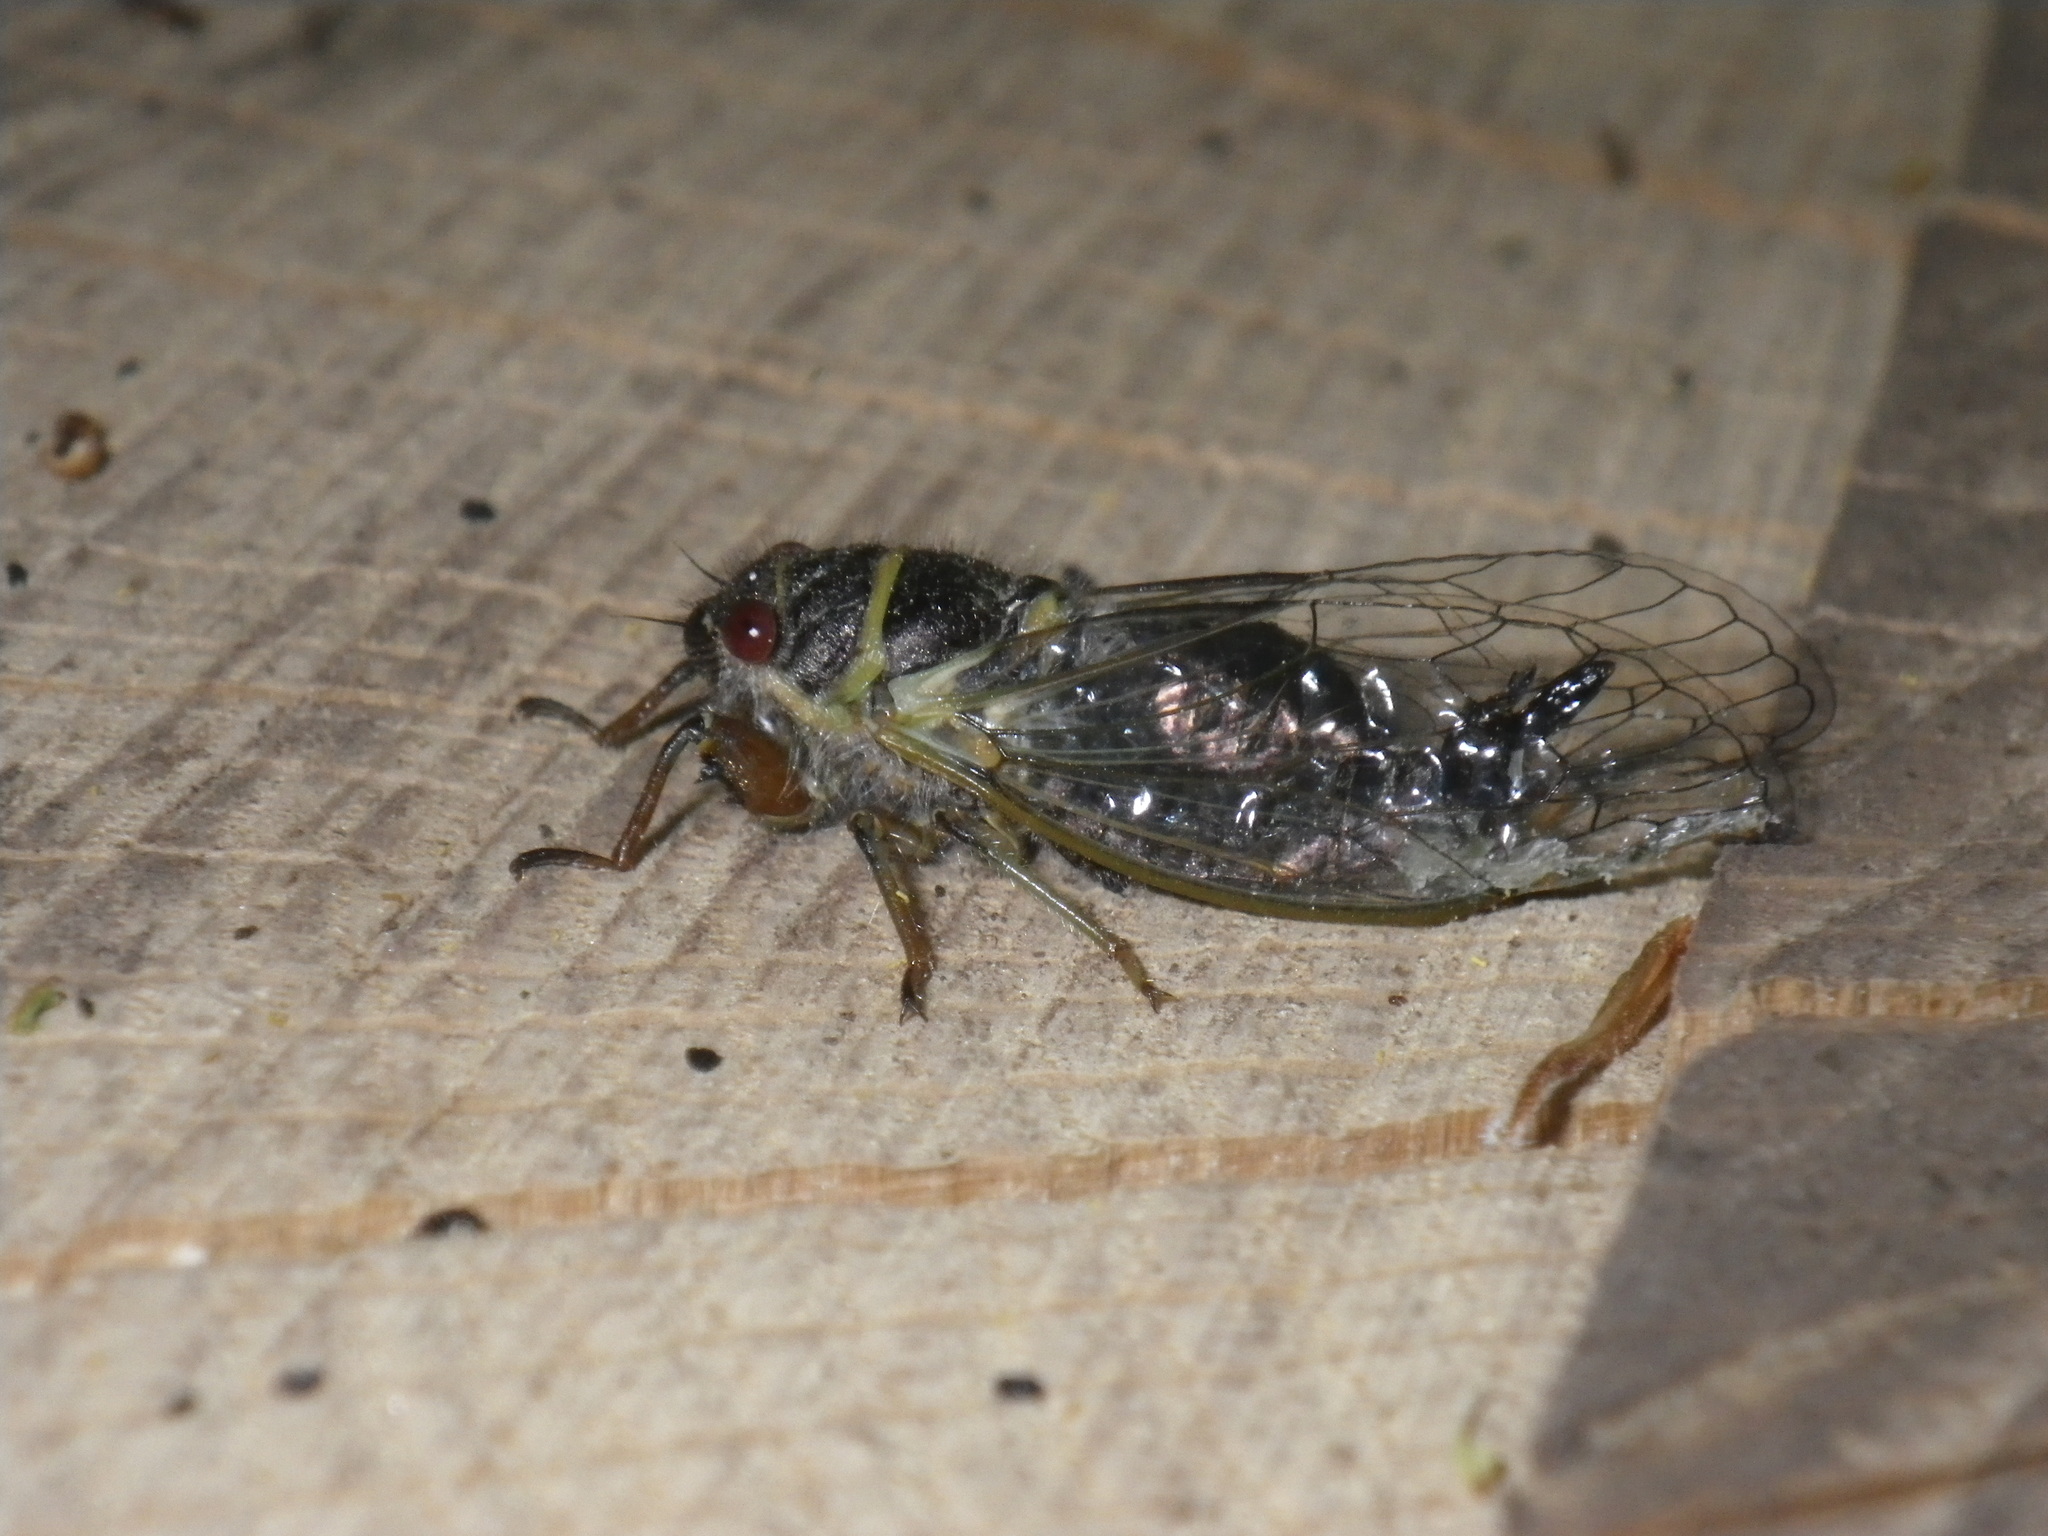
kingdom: Animalia
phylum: Arthropoda
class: Insecta
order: Hemiptera
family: Cicadidae
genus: Platypedia
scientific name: Platypedia areolata
